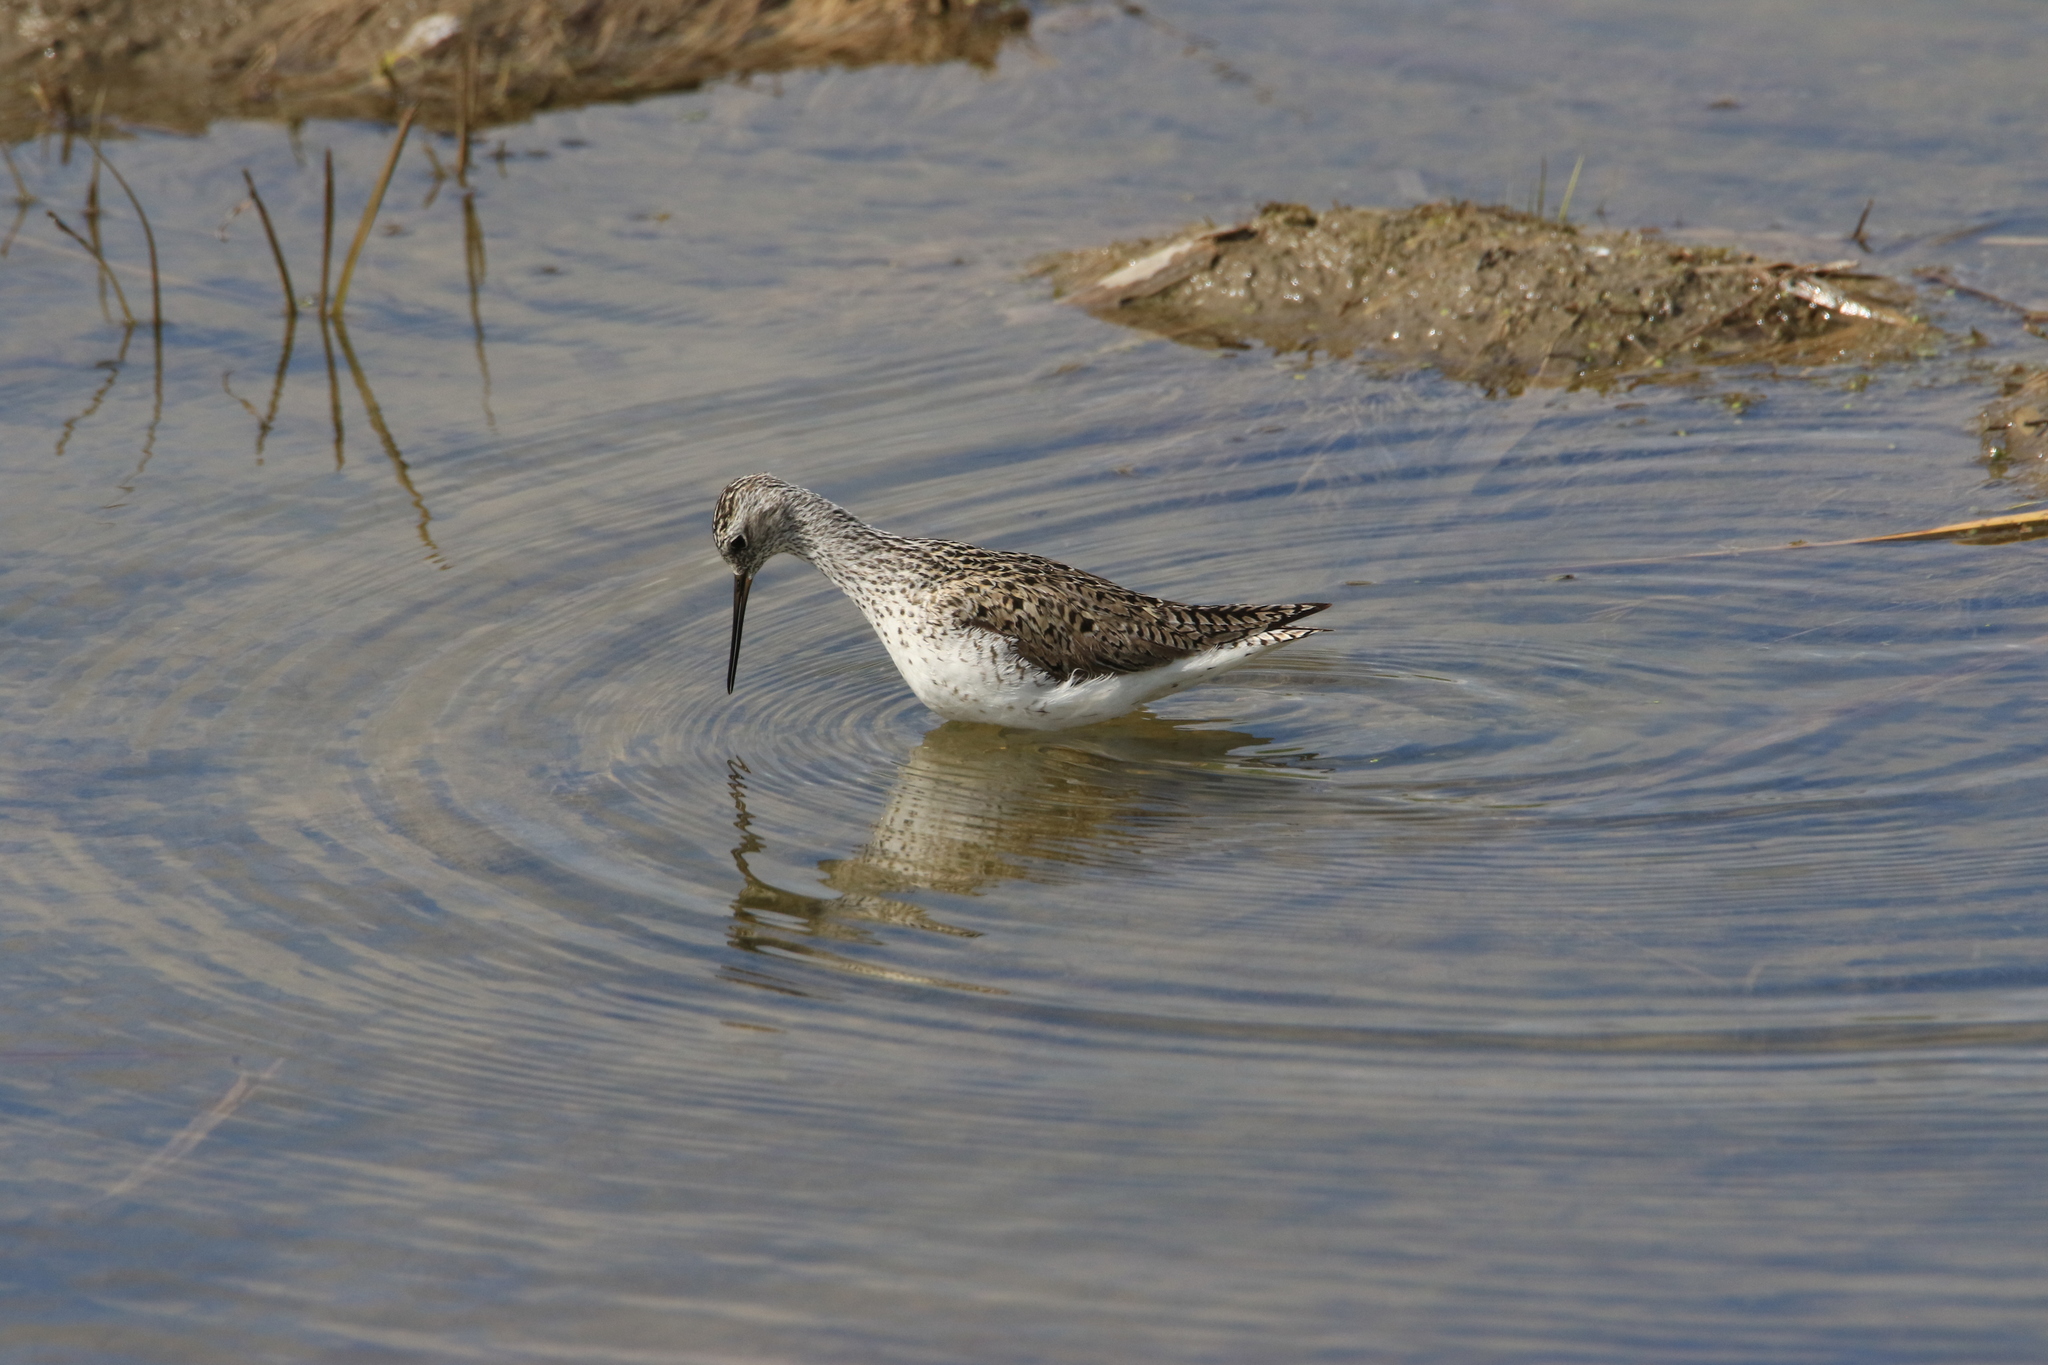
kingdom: Animalia
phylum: Chordata
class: Aves
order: Charadriiformes
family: Scolopacidae
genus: Tringa
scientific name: Tringa stagnatilis
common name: Marsh sandpiper
